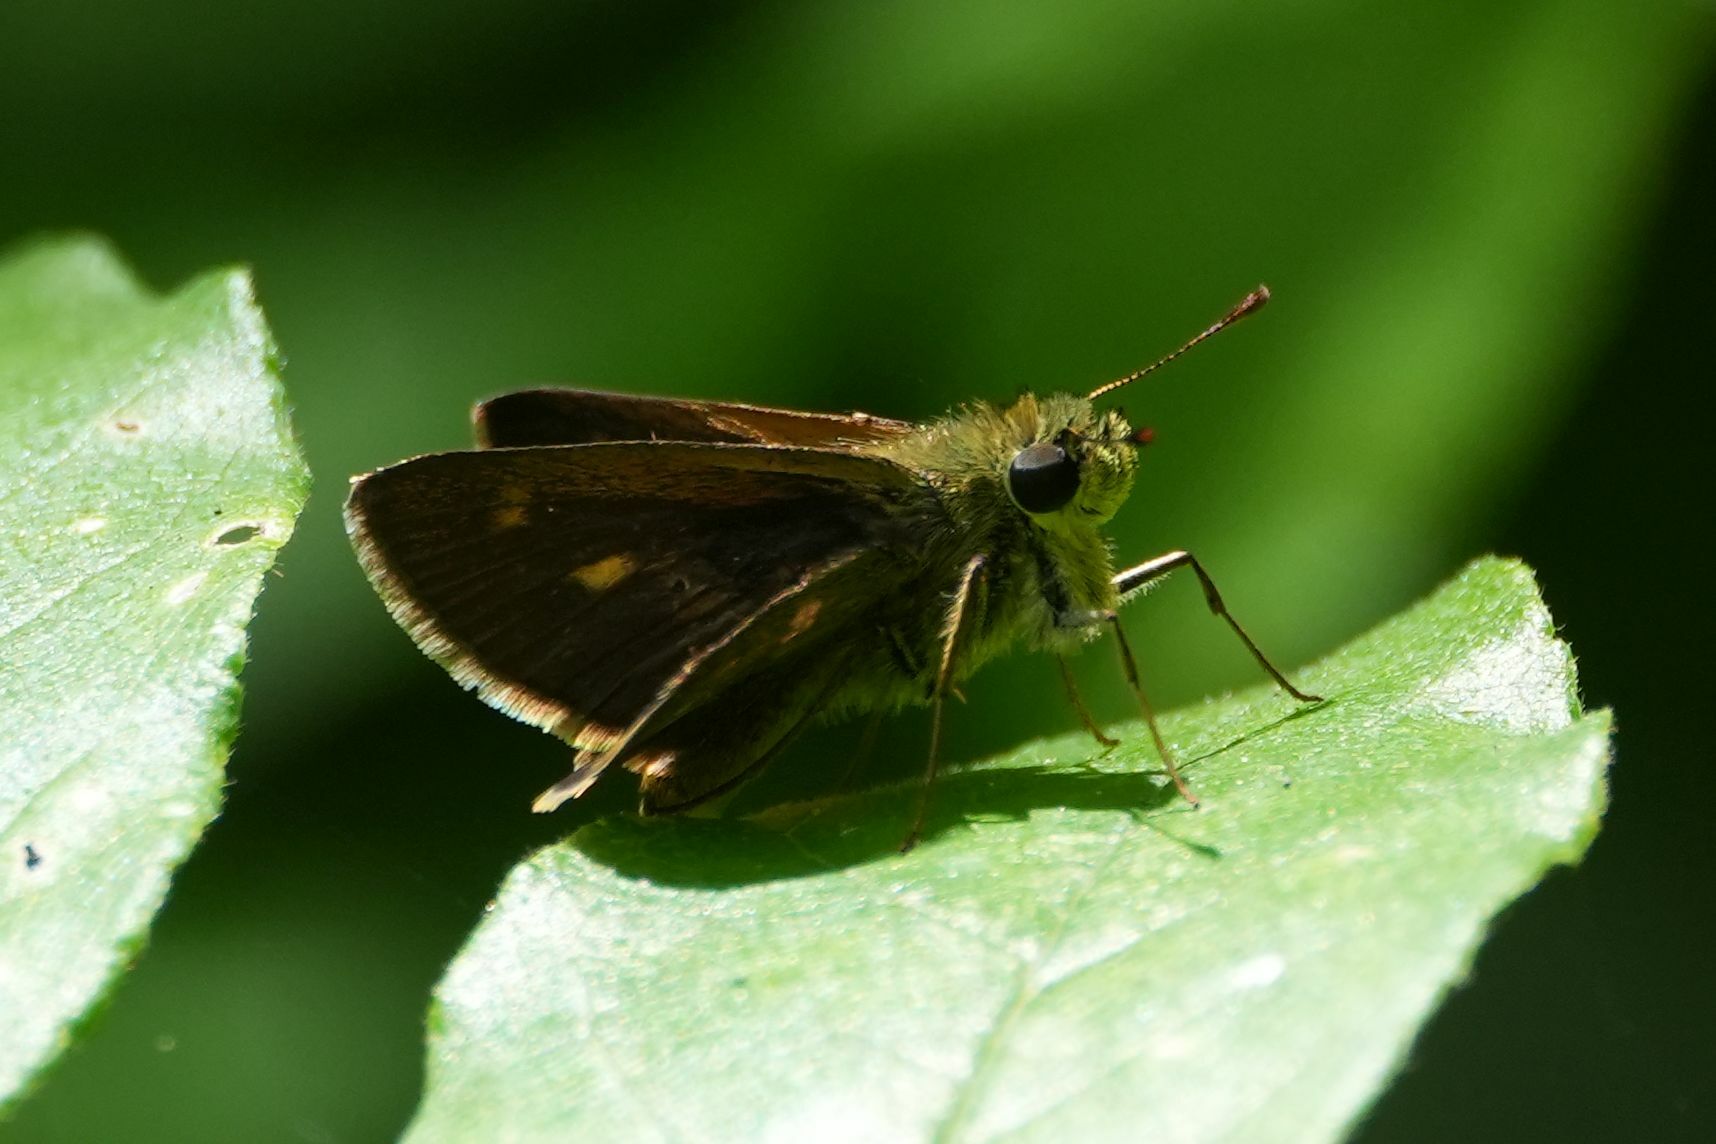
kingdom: Animalia
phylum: Arthropoda
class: Insecta
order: Lepidoptera
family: Hesperiidae
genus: Polites
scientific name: Polites egeremet
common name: Northern broken-dash
